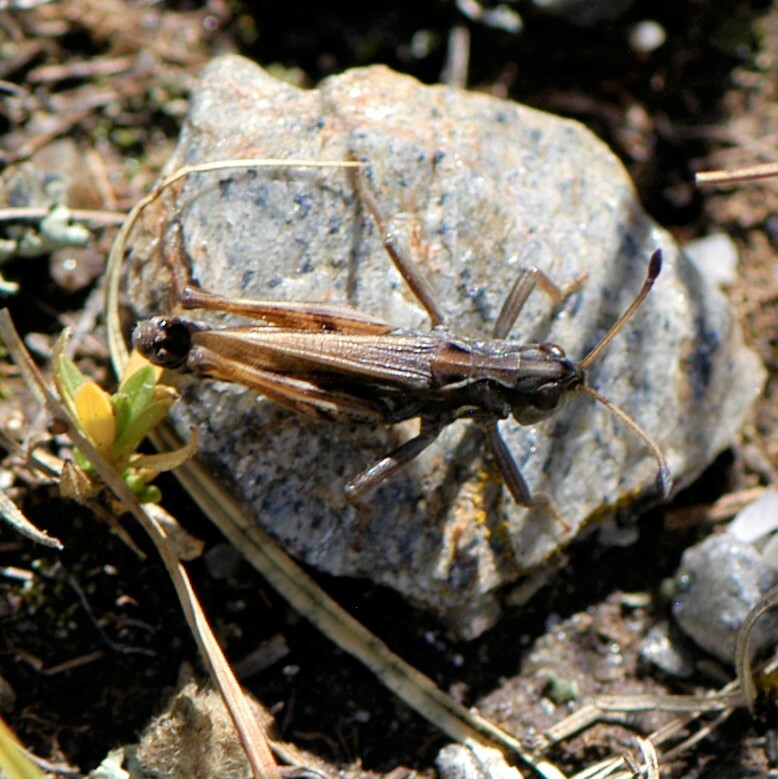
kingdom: Animalia
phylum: Arthropoda
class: Insecta
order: Orthoptera
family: Acrididae
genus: Aeropedellus
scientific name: Aeropedellus clavatus
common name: Clubhorned grasshopper
